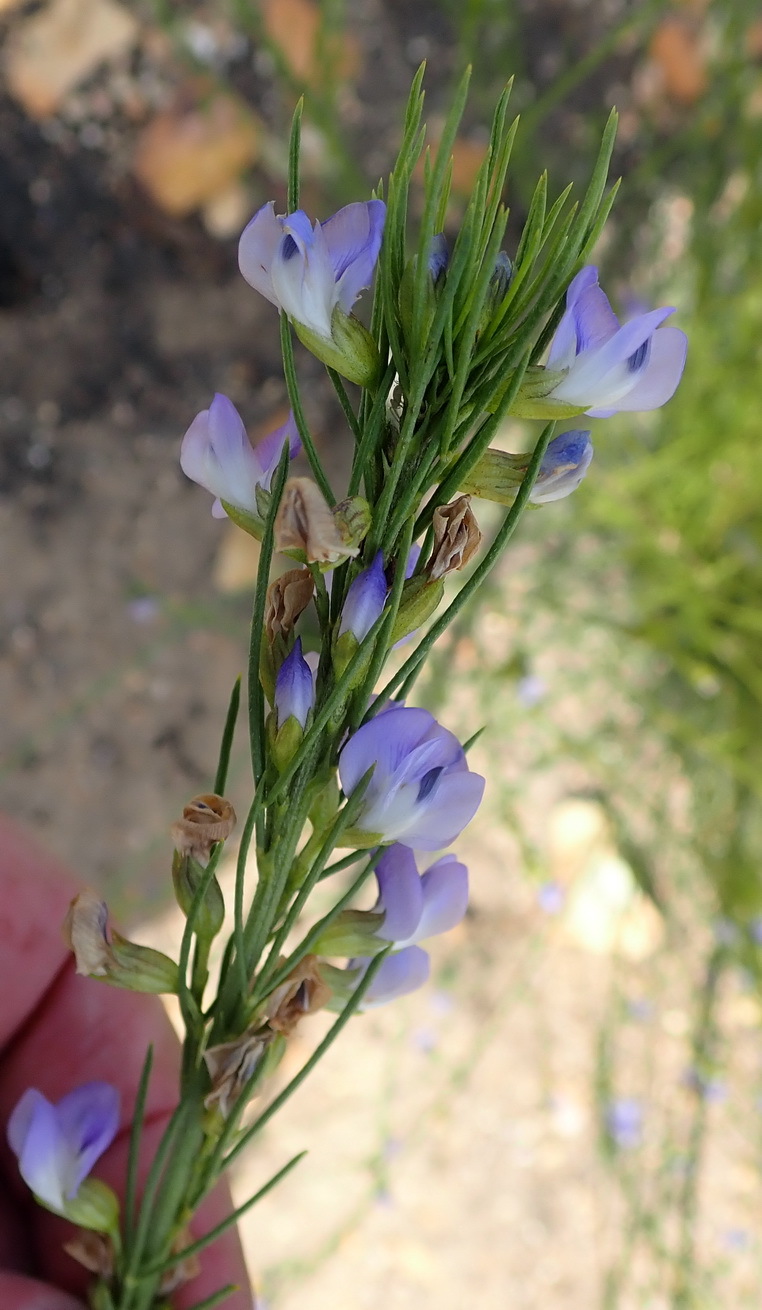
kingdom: Plantae
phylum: Tracheophyta
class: Magnoliopsida
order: Fabales
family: Fabaceae
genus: Psoralea
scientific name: Psoralea diturnerae
